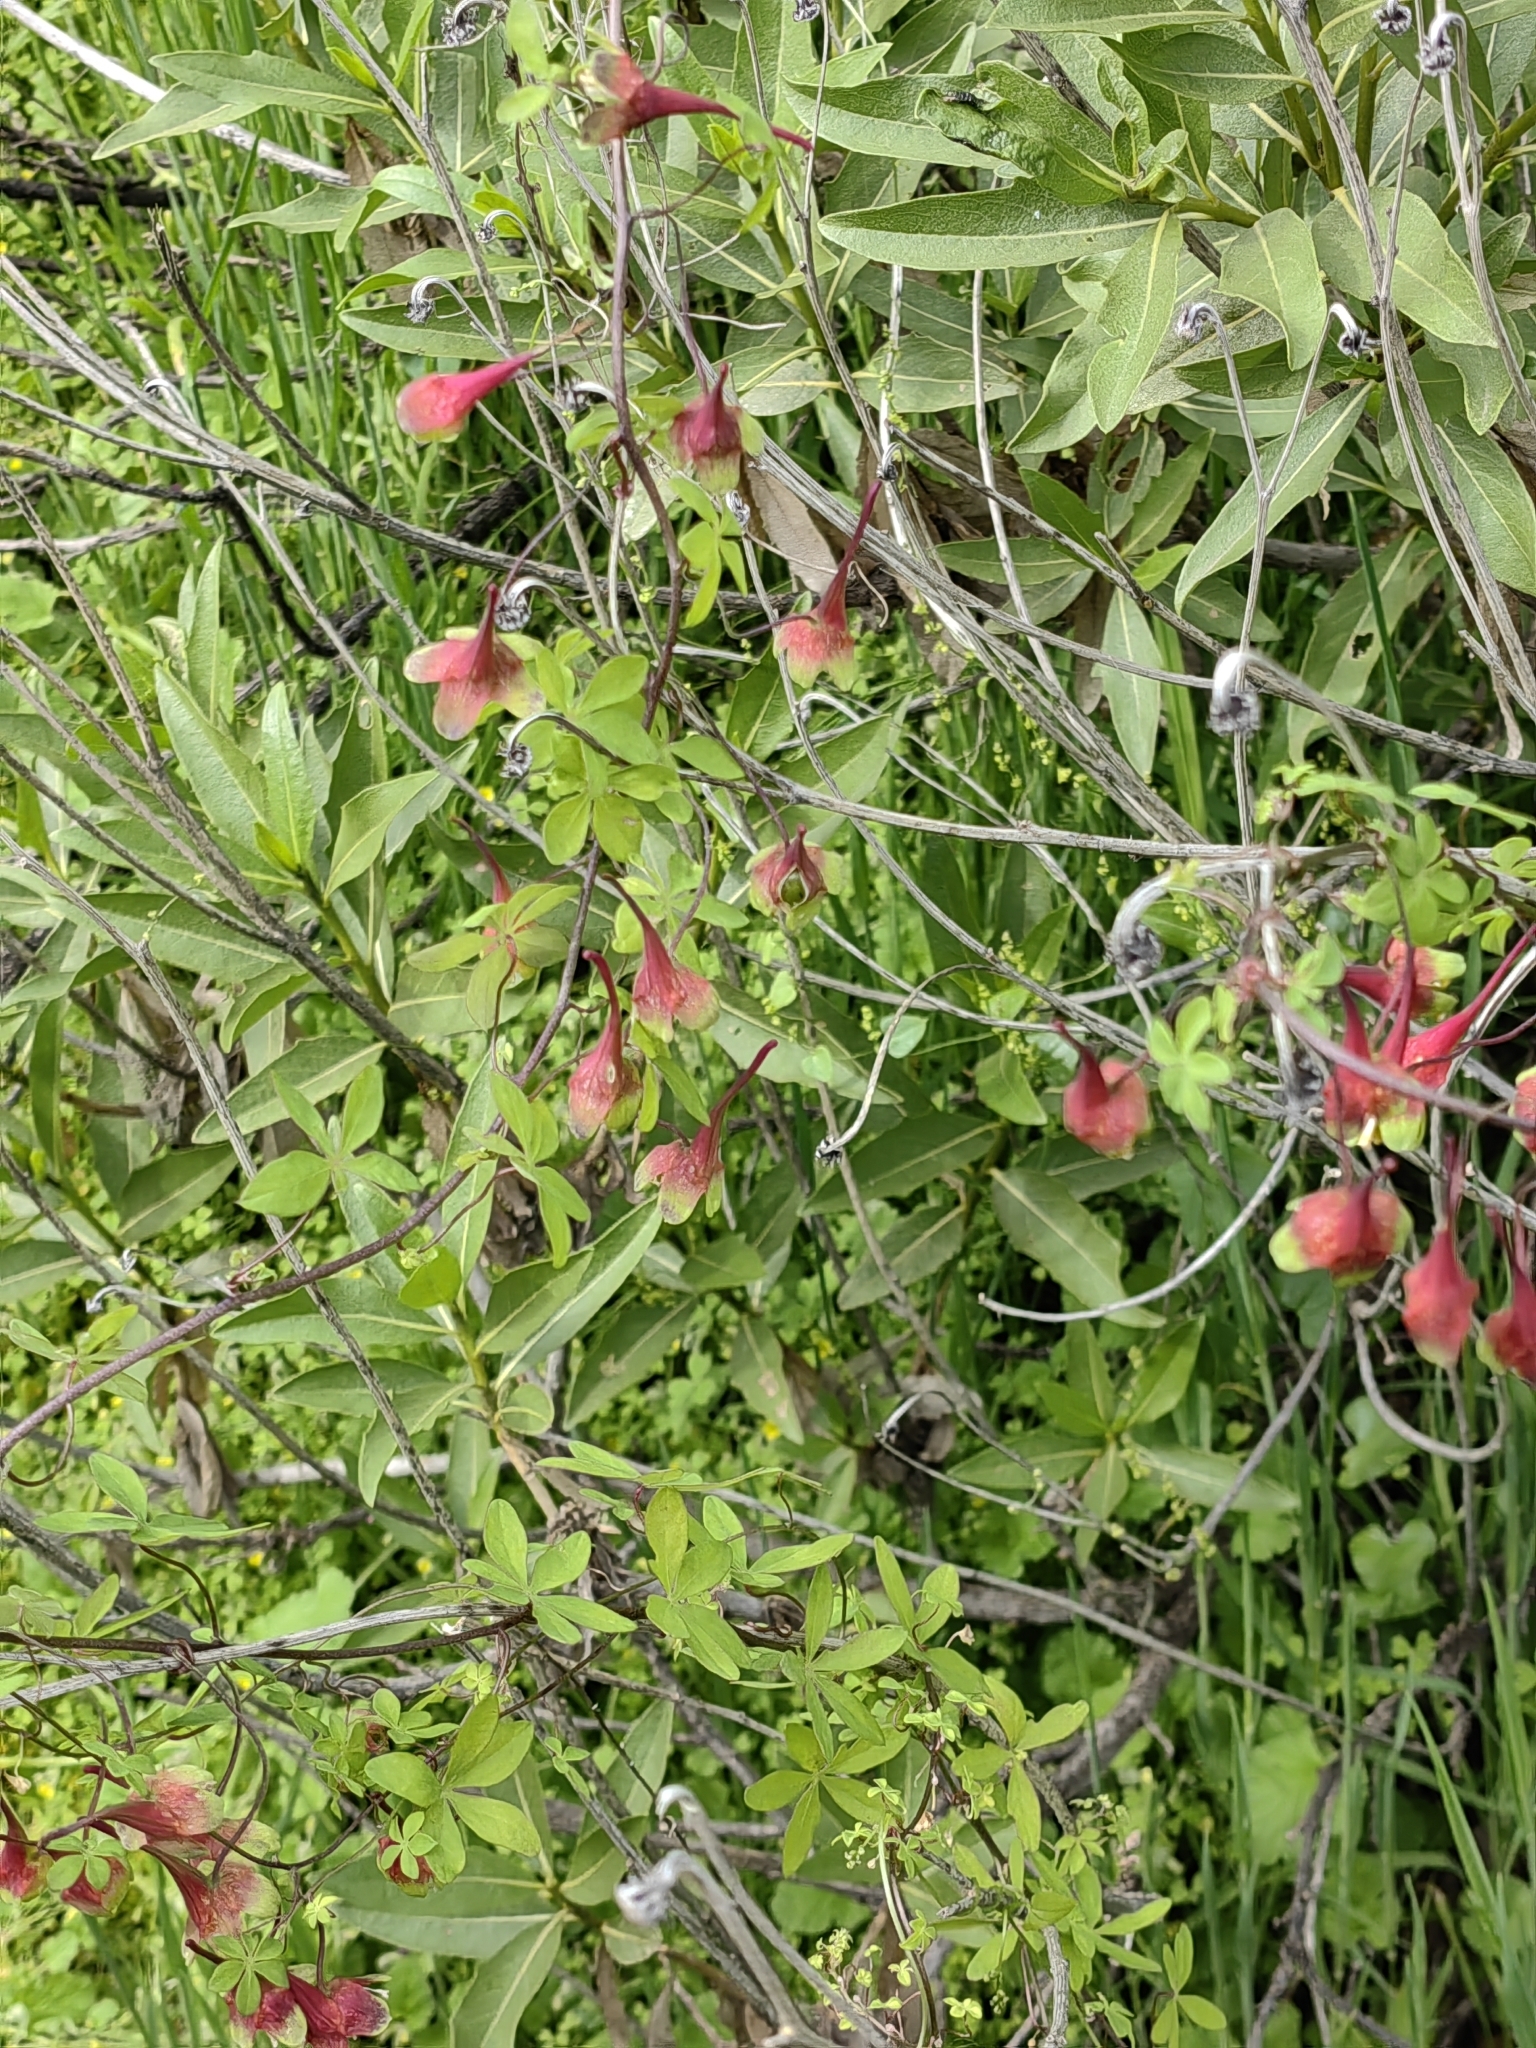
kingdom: Plantae
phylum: Tracheophyta
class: Magnoliopsida
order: Brassicales
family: Tropaeolaceae
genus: Tropaeolum
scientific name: Tropaeolum tricolor
